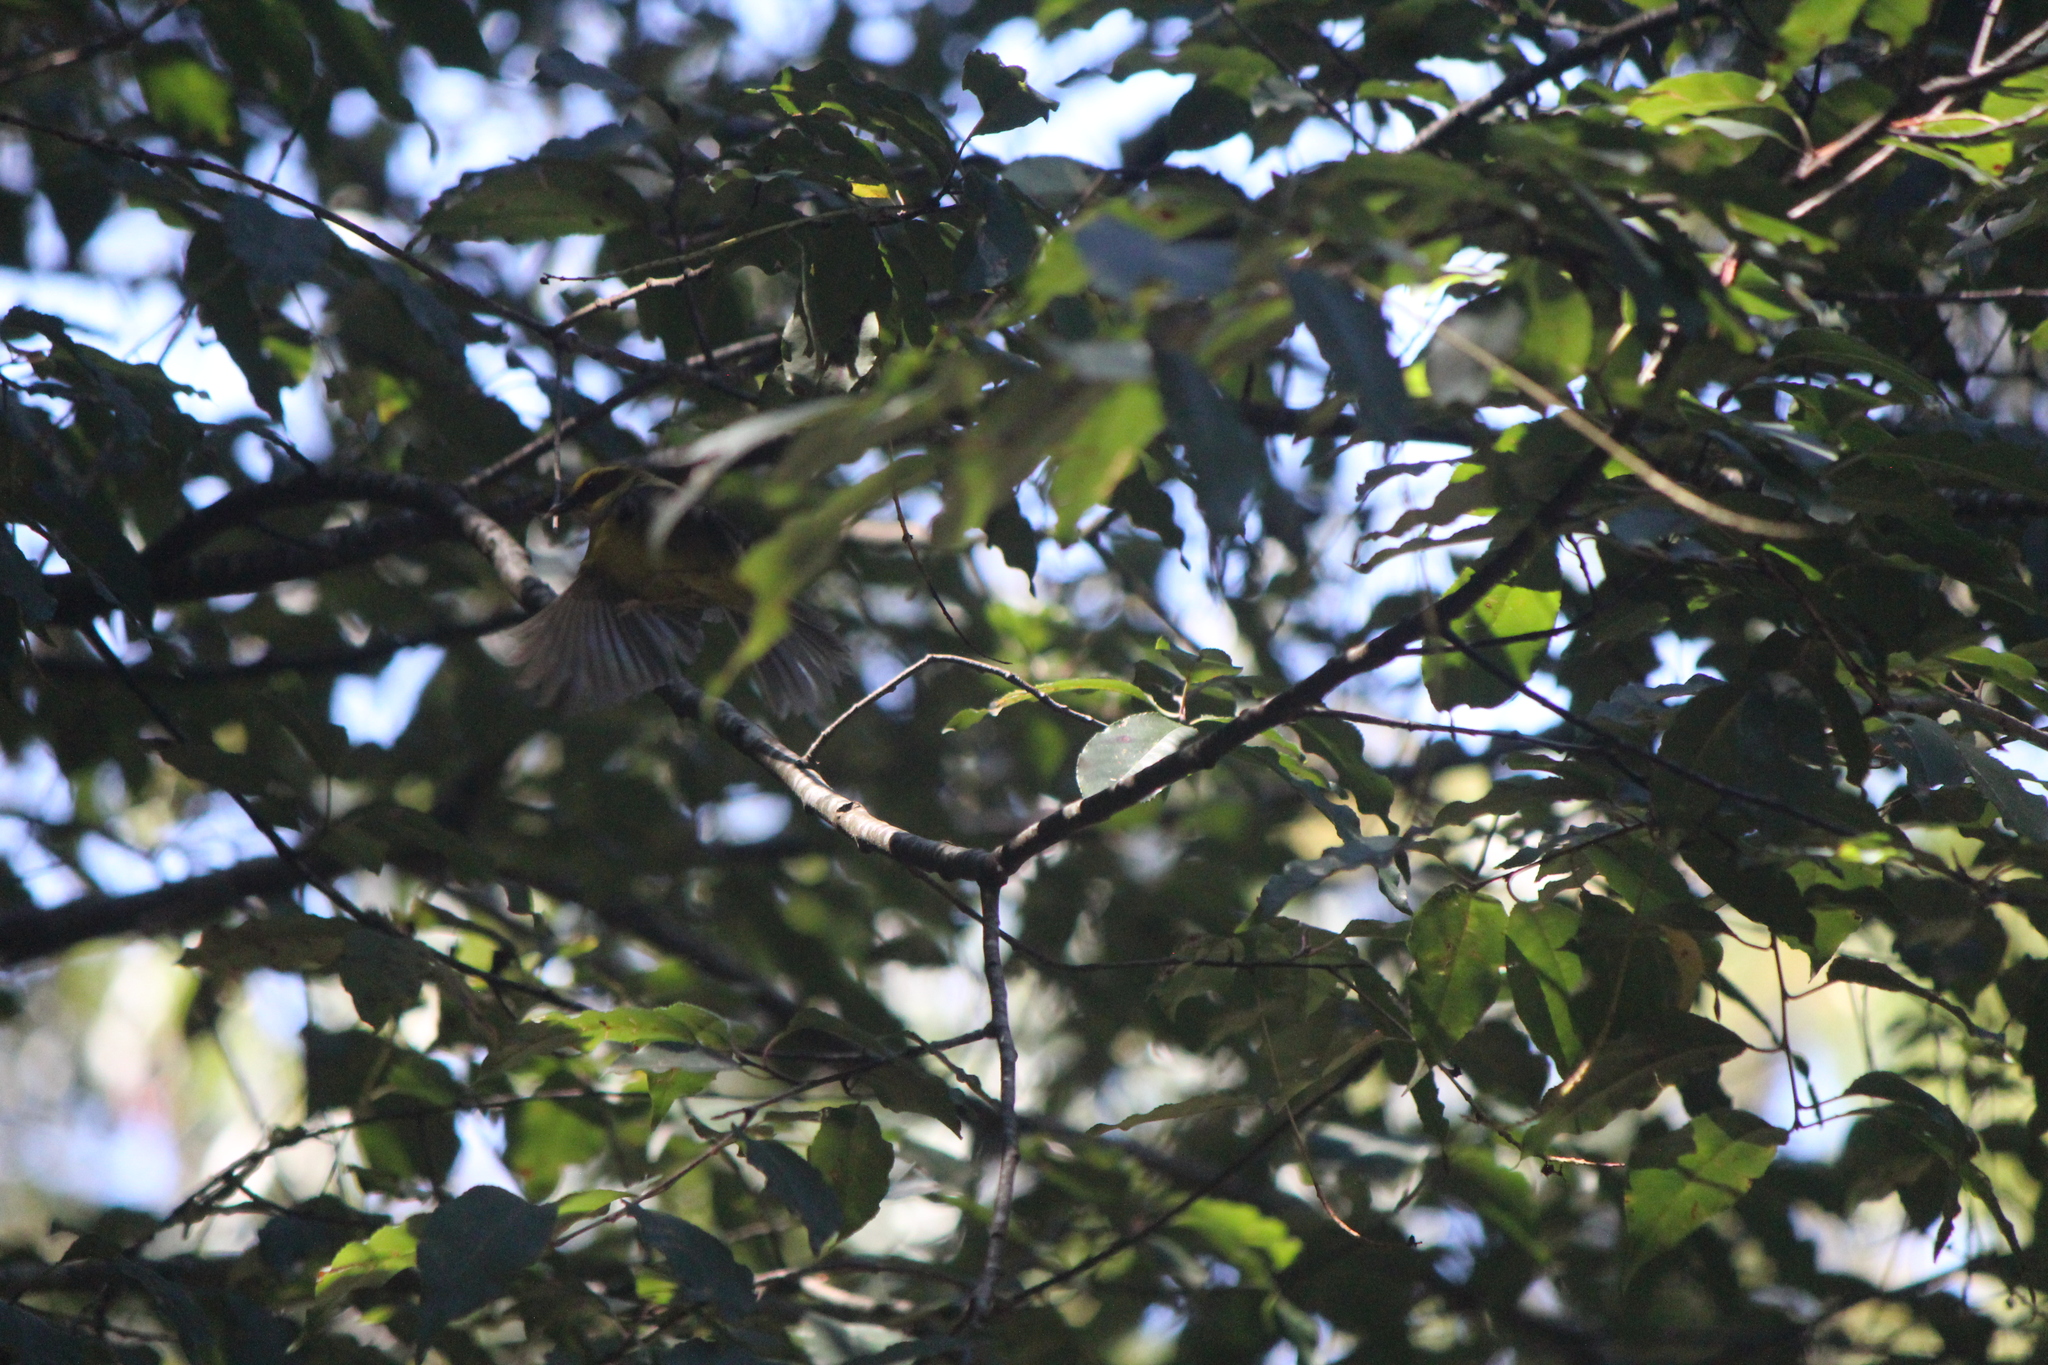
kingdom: Animalia
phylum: Chordata
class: Aves
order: Passeriformes
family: Parulidae
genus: Basileuterus
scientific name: Basileuterus belli
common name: Golden-browed warbler
